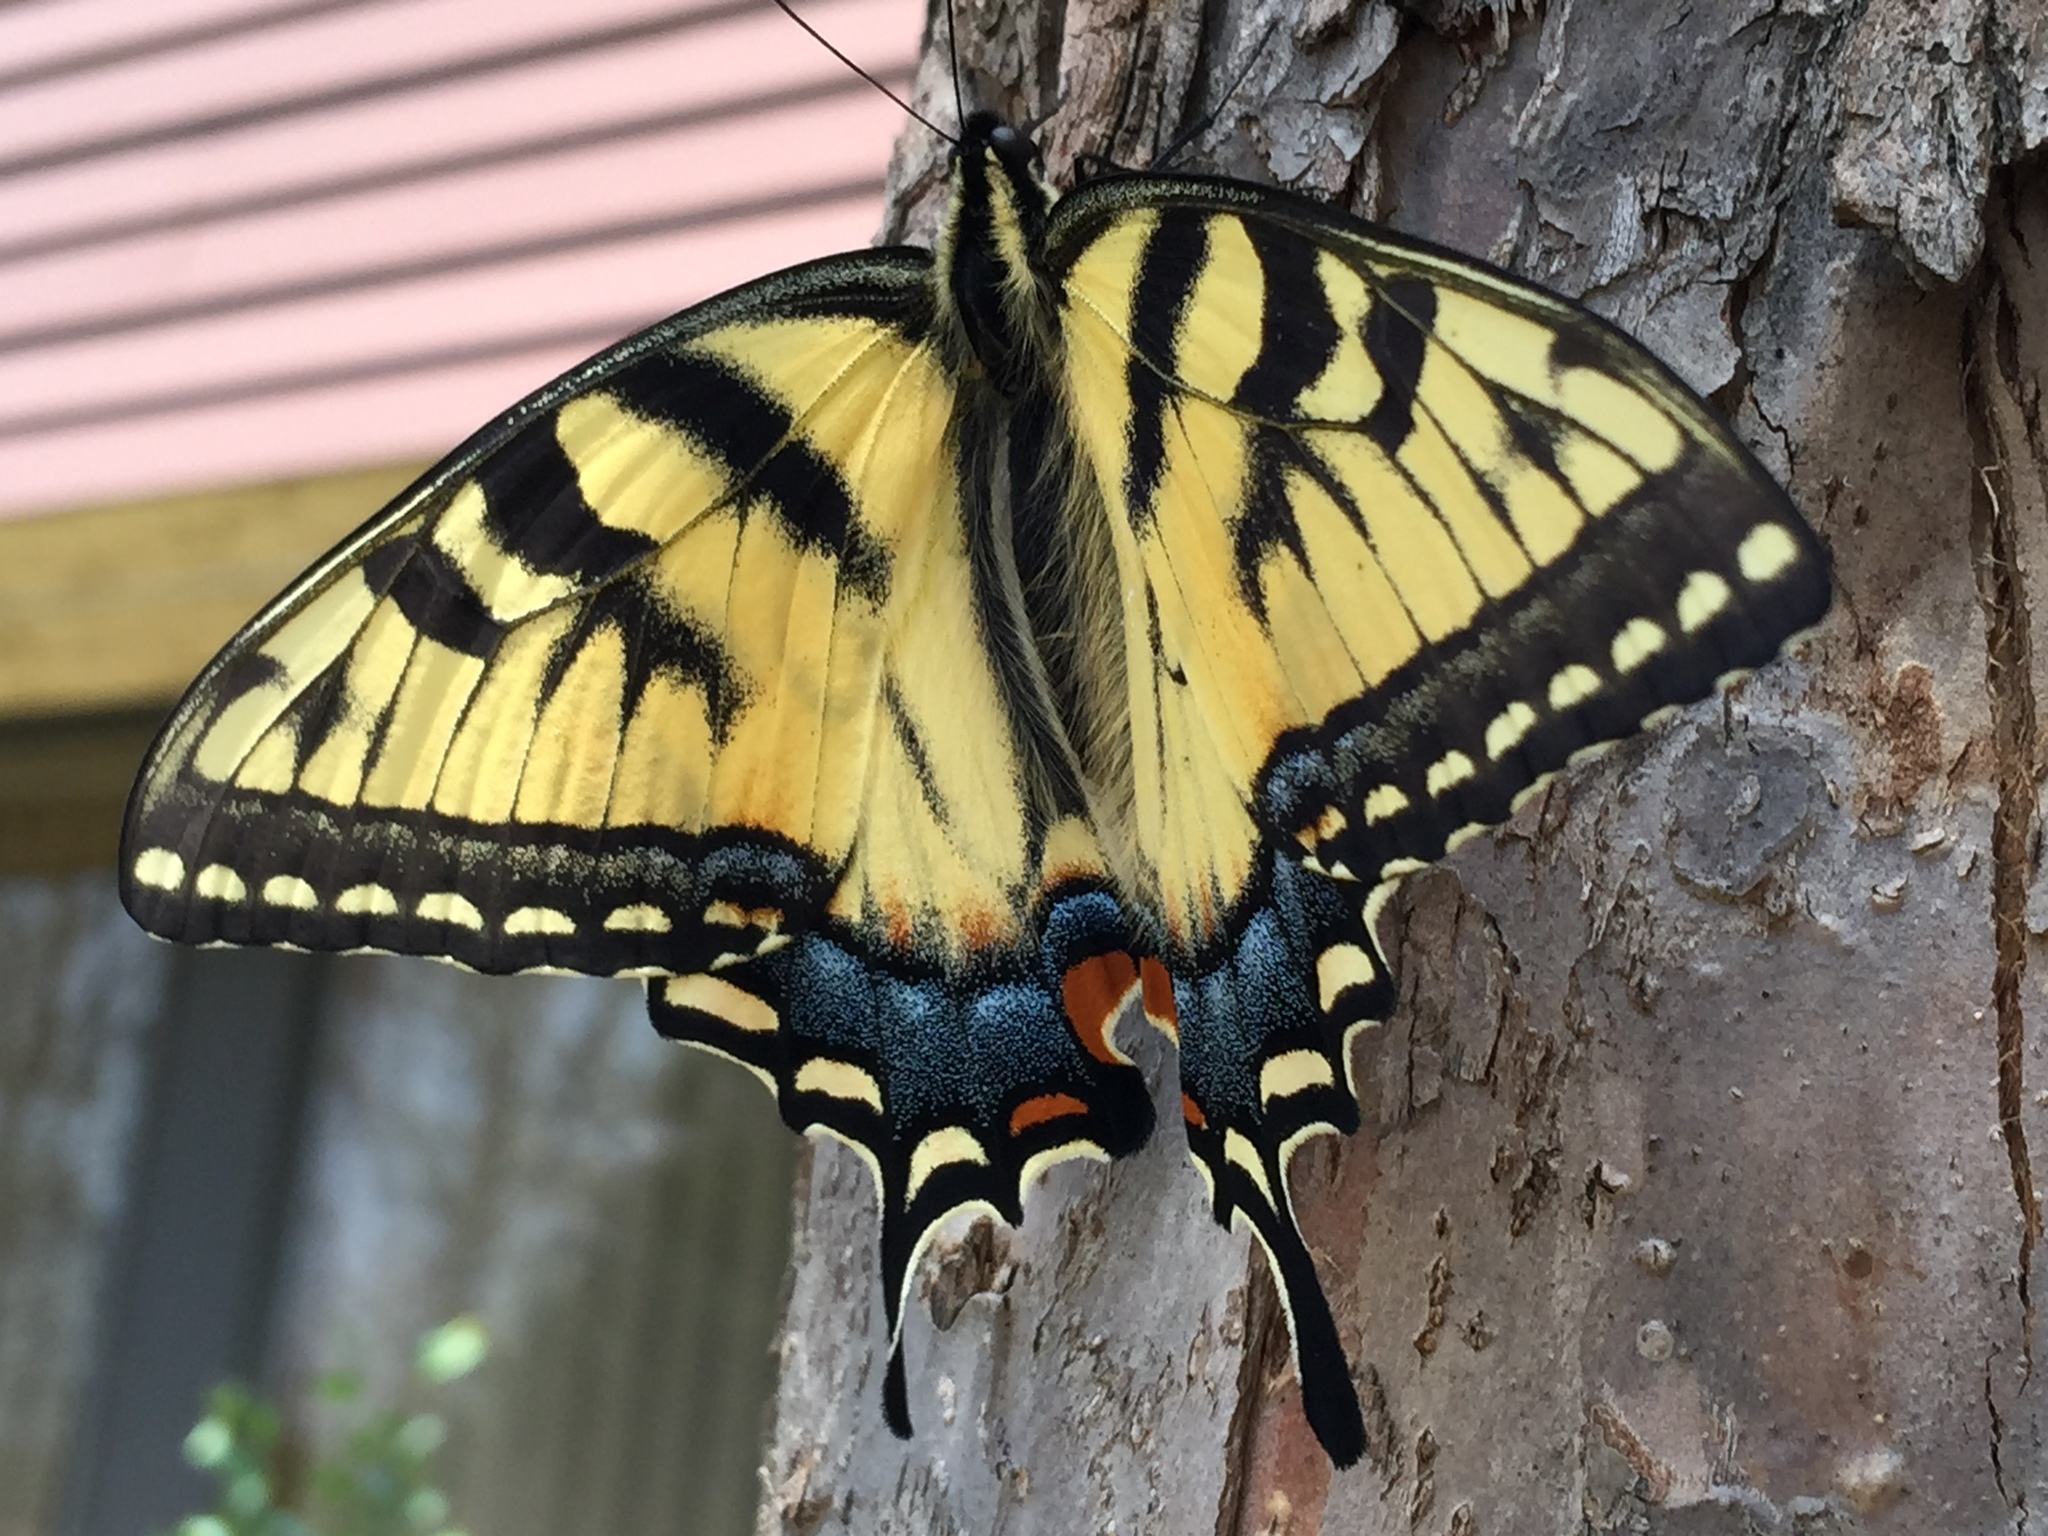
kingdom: Animalia
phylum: Arthropoda
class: Insecta
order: Lepidoptera
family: Papilionidae
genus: Papilio
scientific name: Papilio glaucus
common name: Tiger swallowtail
